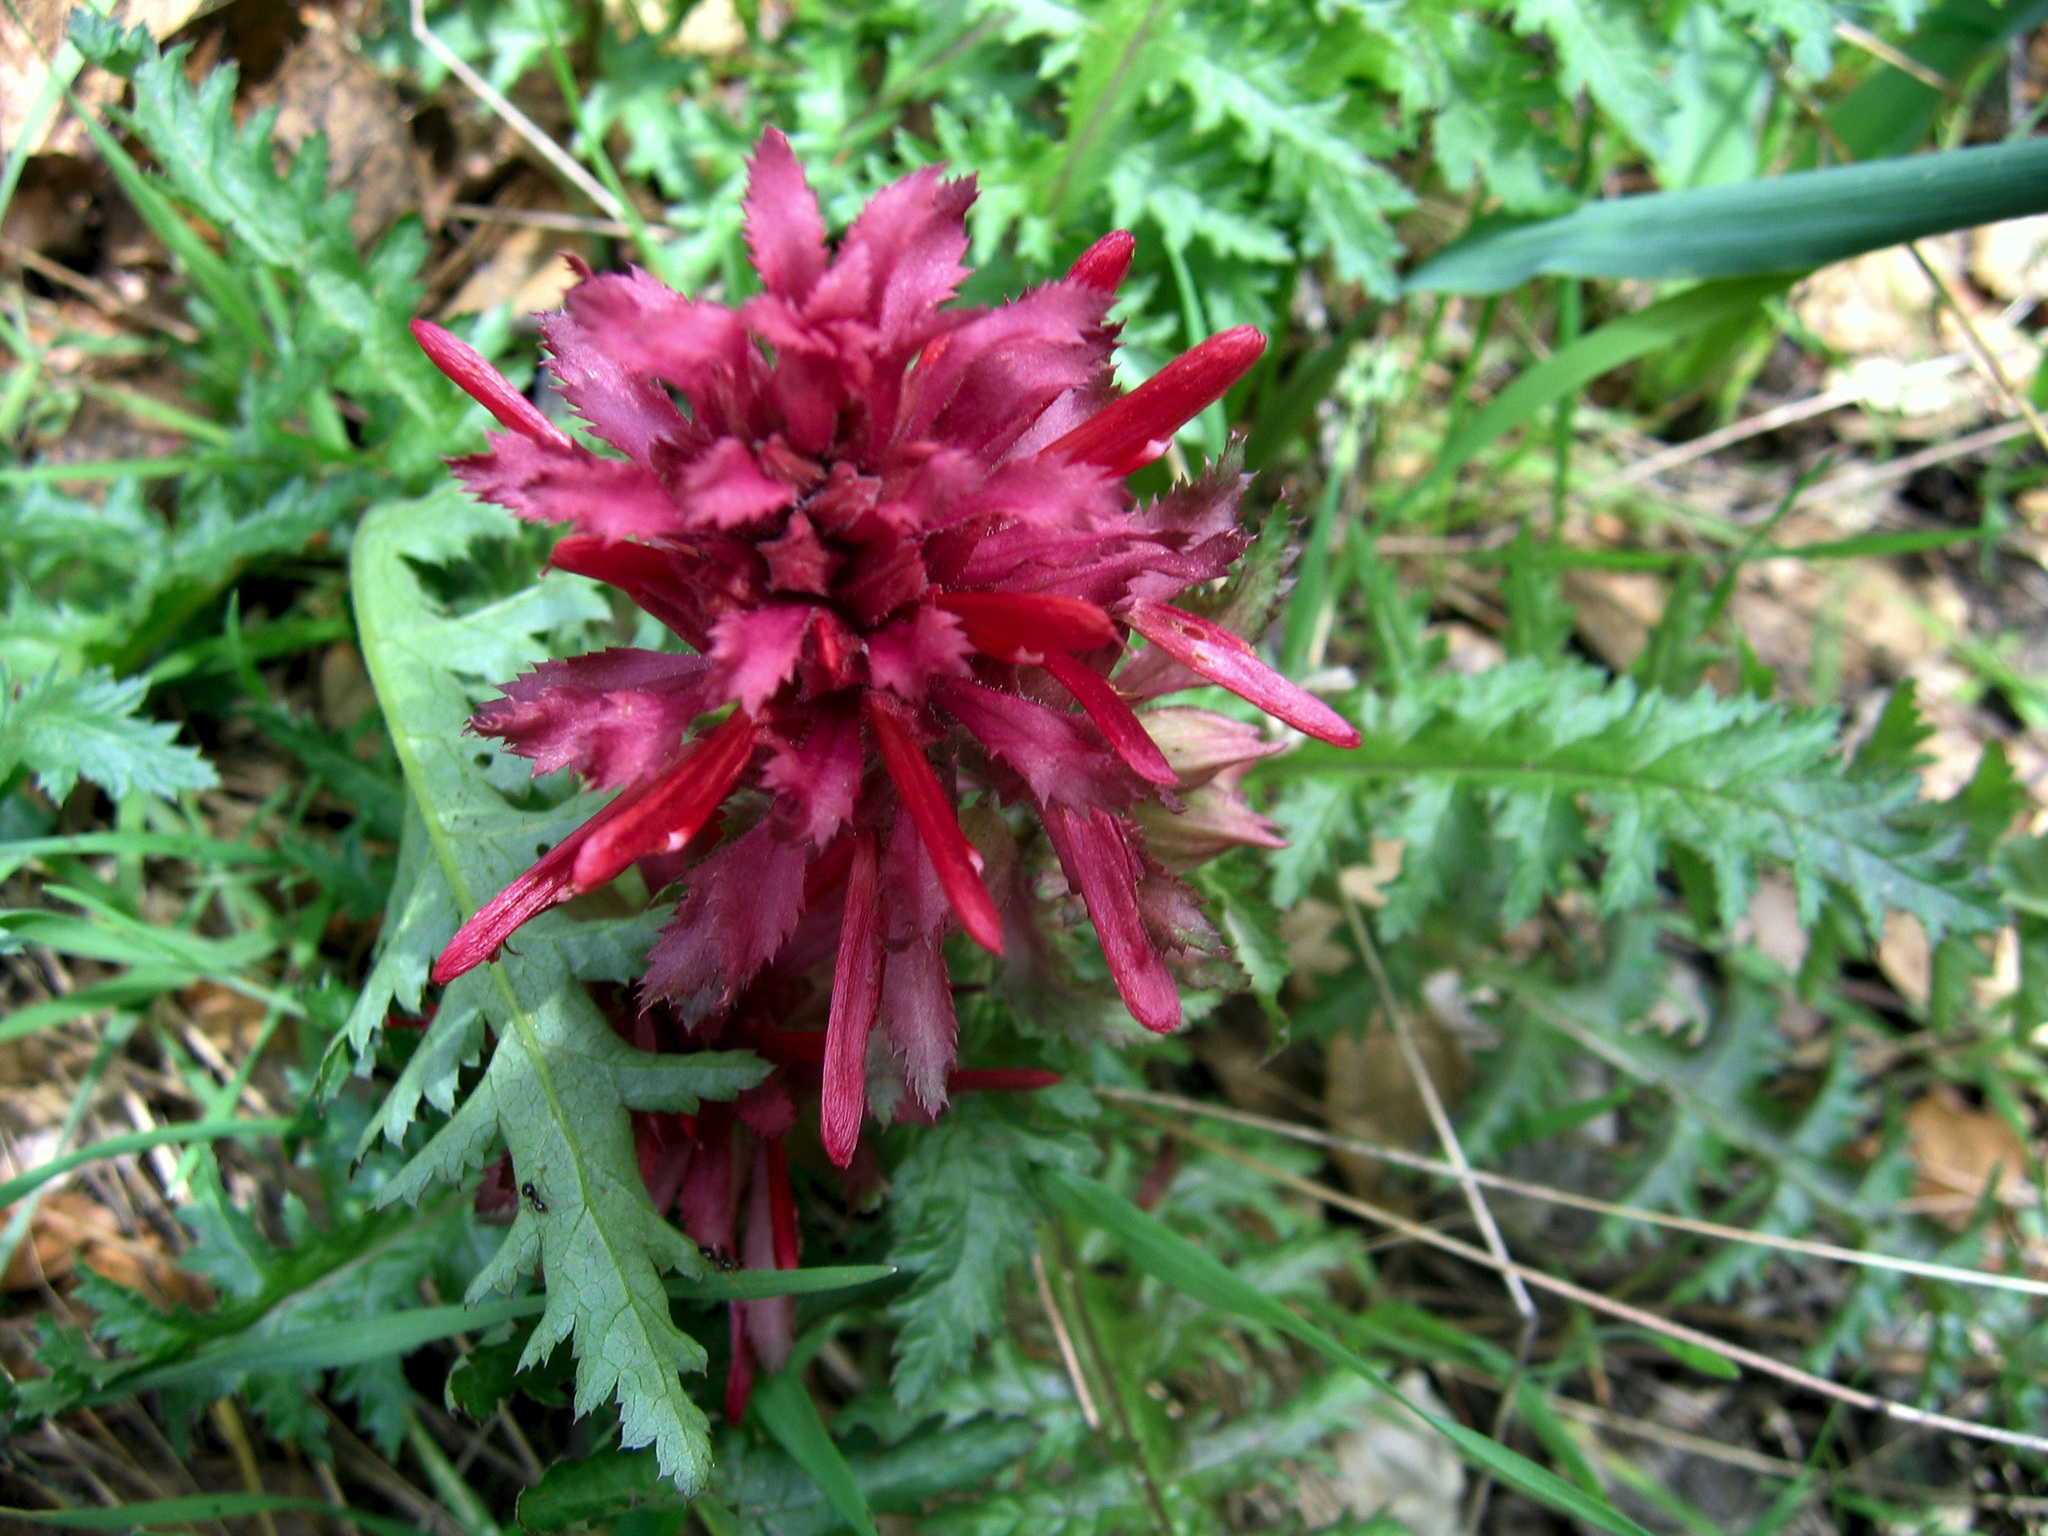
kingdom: Plantae
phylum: Tracheophyta
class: Magnoliopsida
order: Lamiales
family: Orobanchaceae
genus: Pedicularis
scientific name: Pedicularis densiflora
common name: Indian warrior
